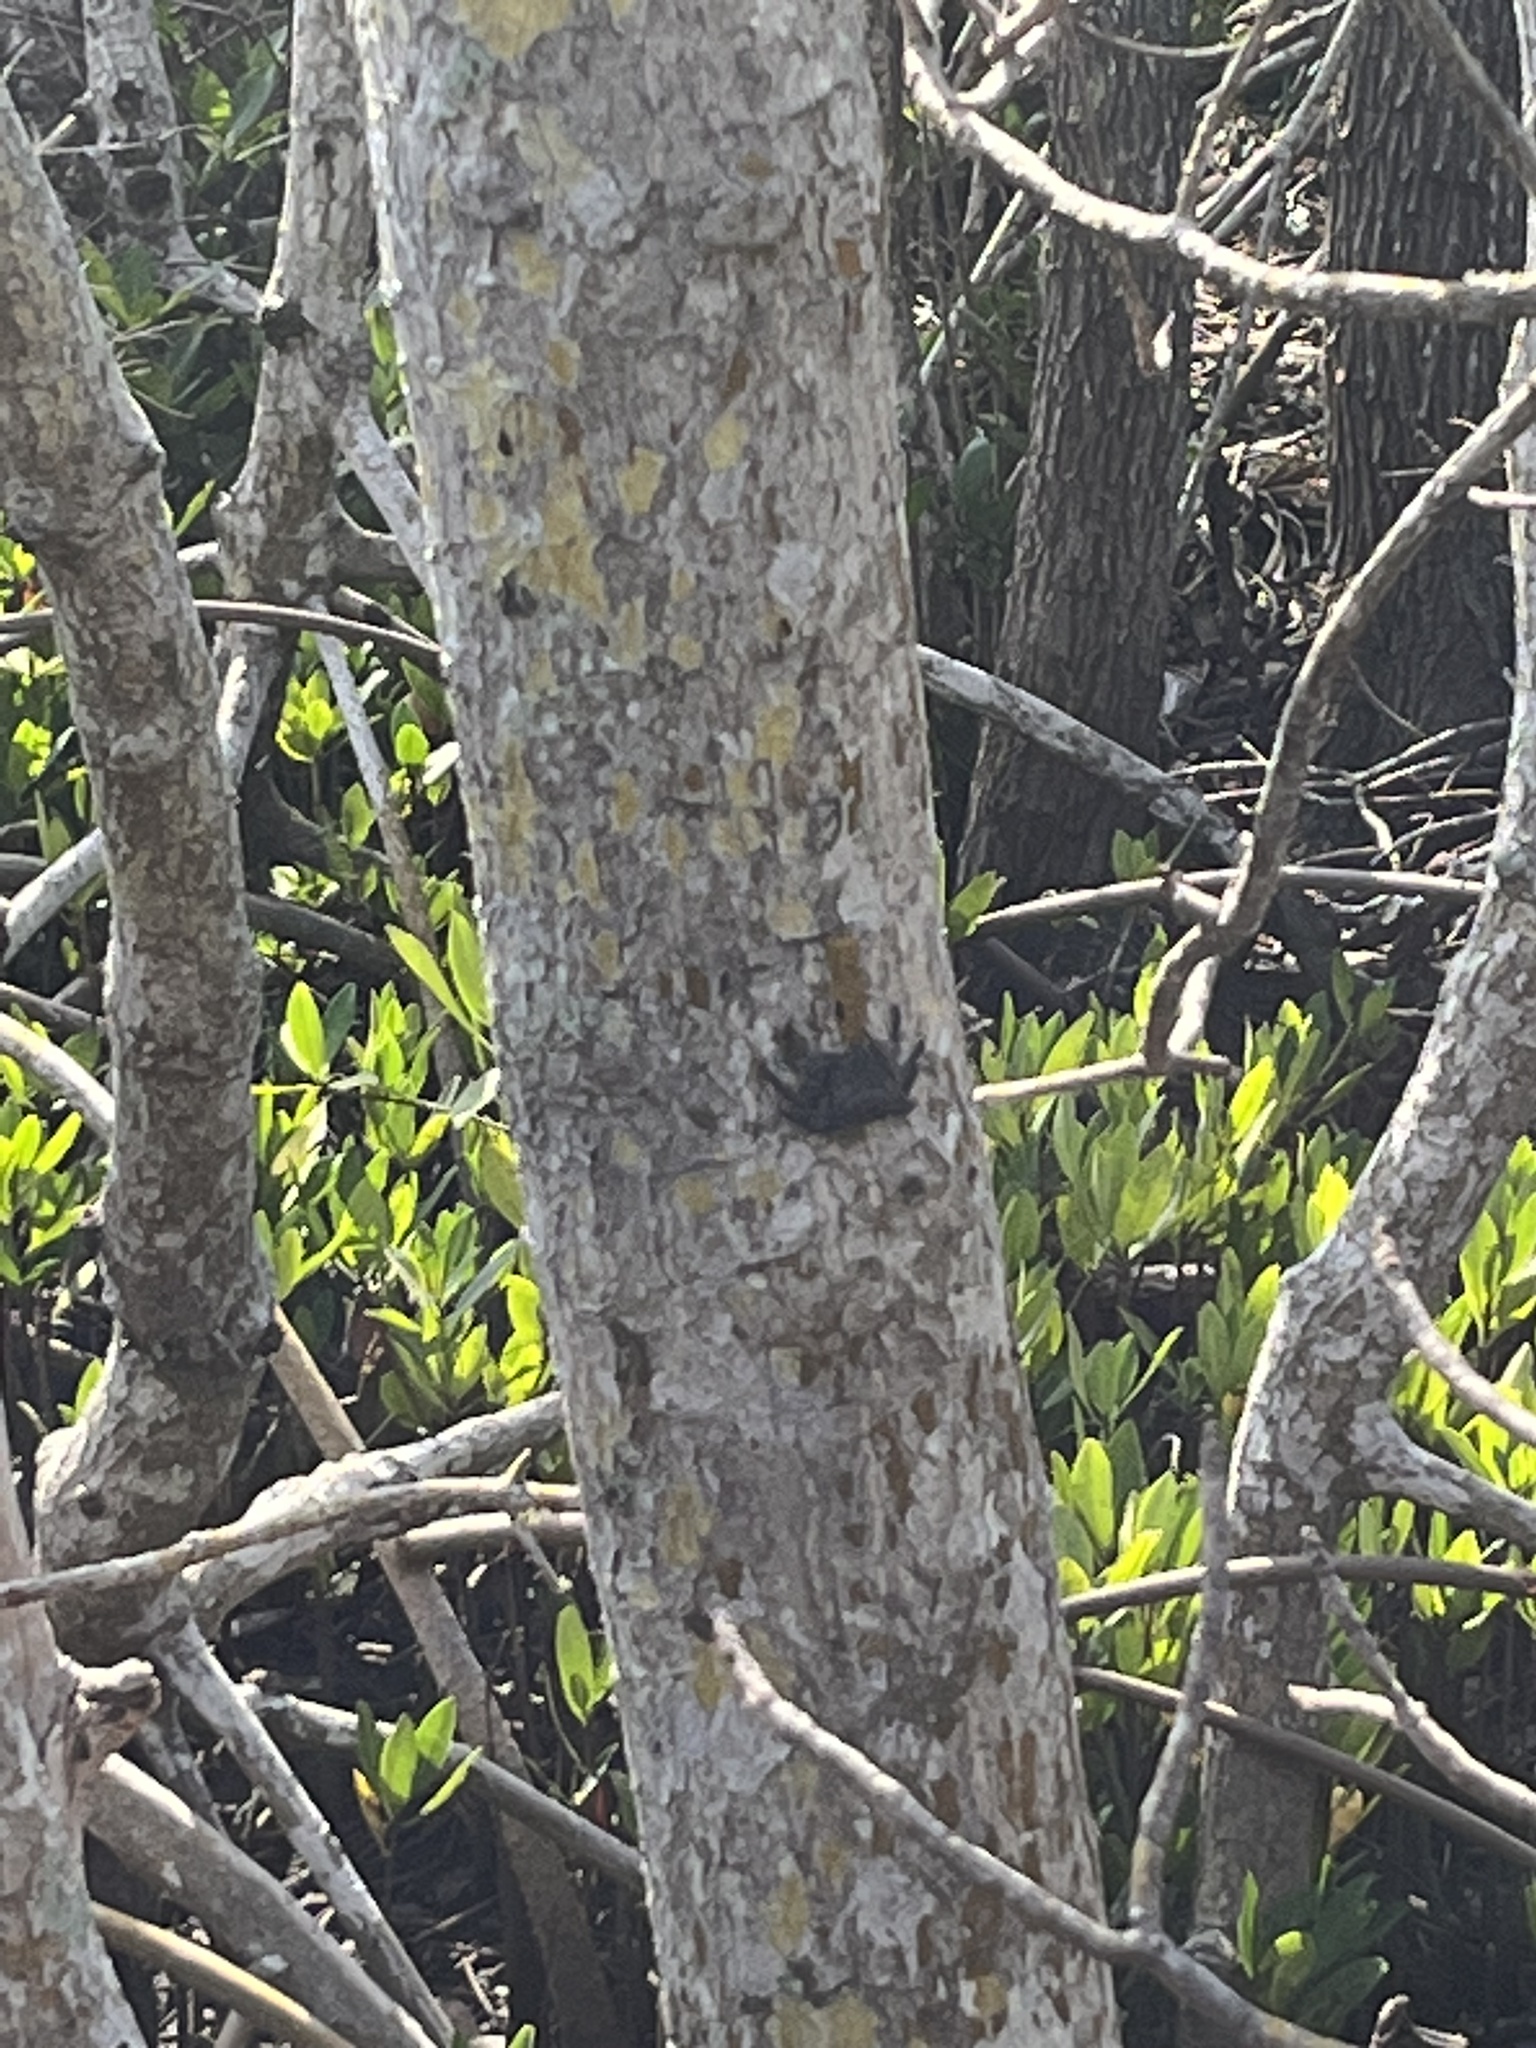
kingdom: Animalia
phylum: Arthropoda
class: Malacostraca
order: Decapoda
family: Sesarmidae
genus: Aratus
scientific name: Aratus pisonii
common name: Mangrove crab
